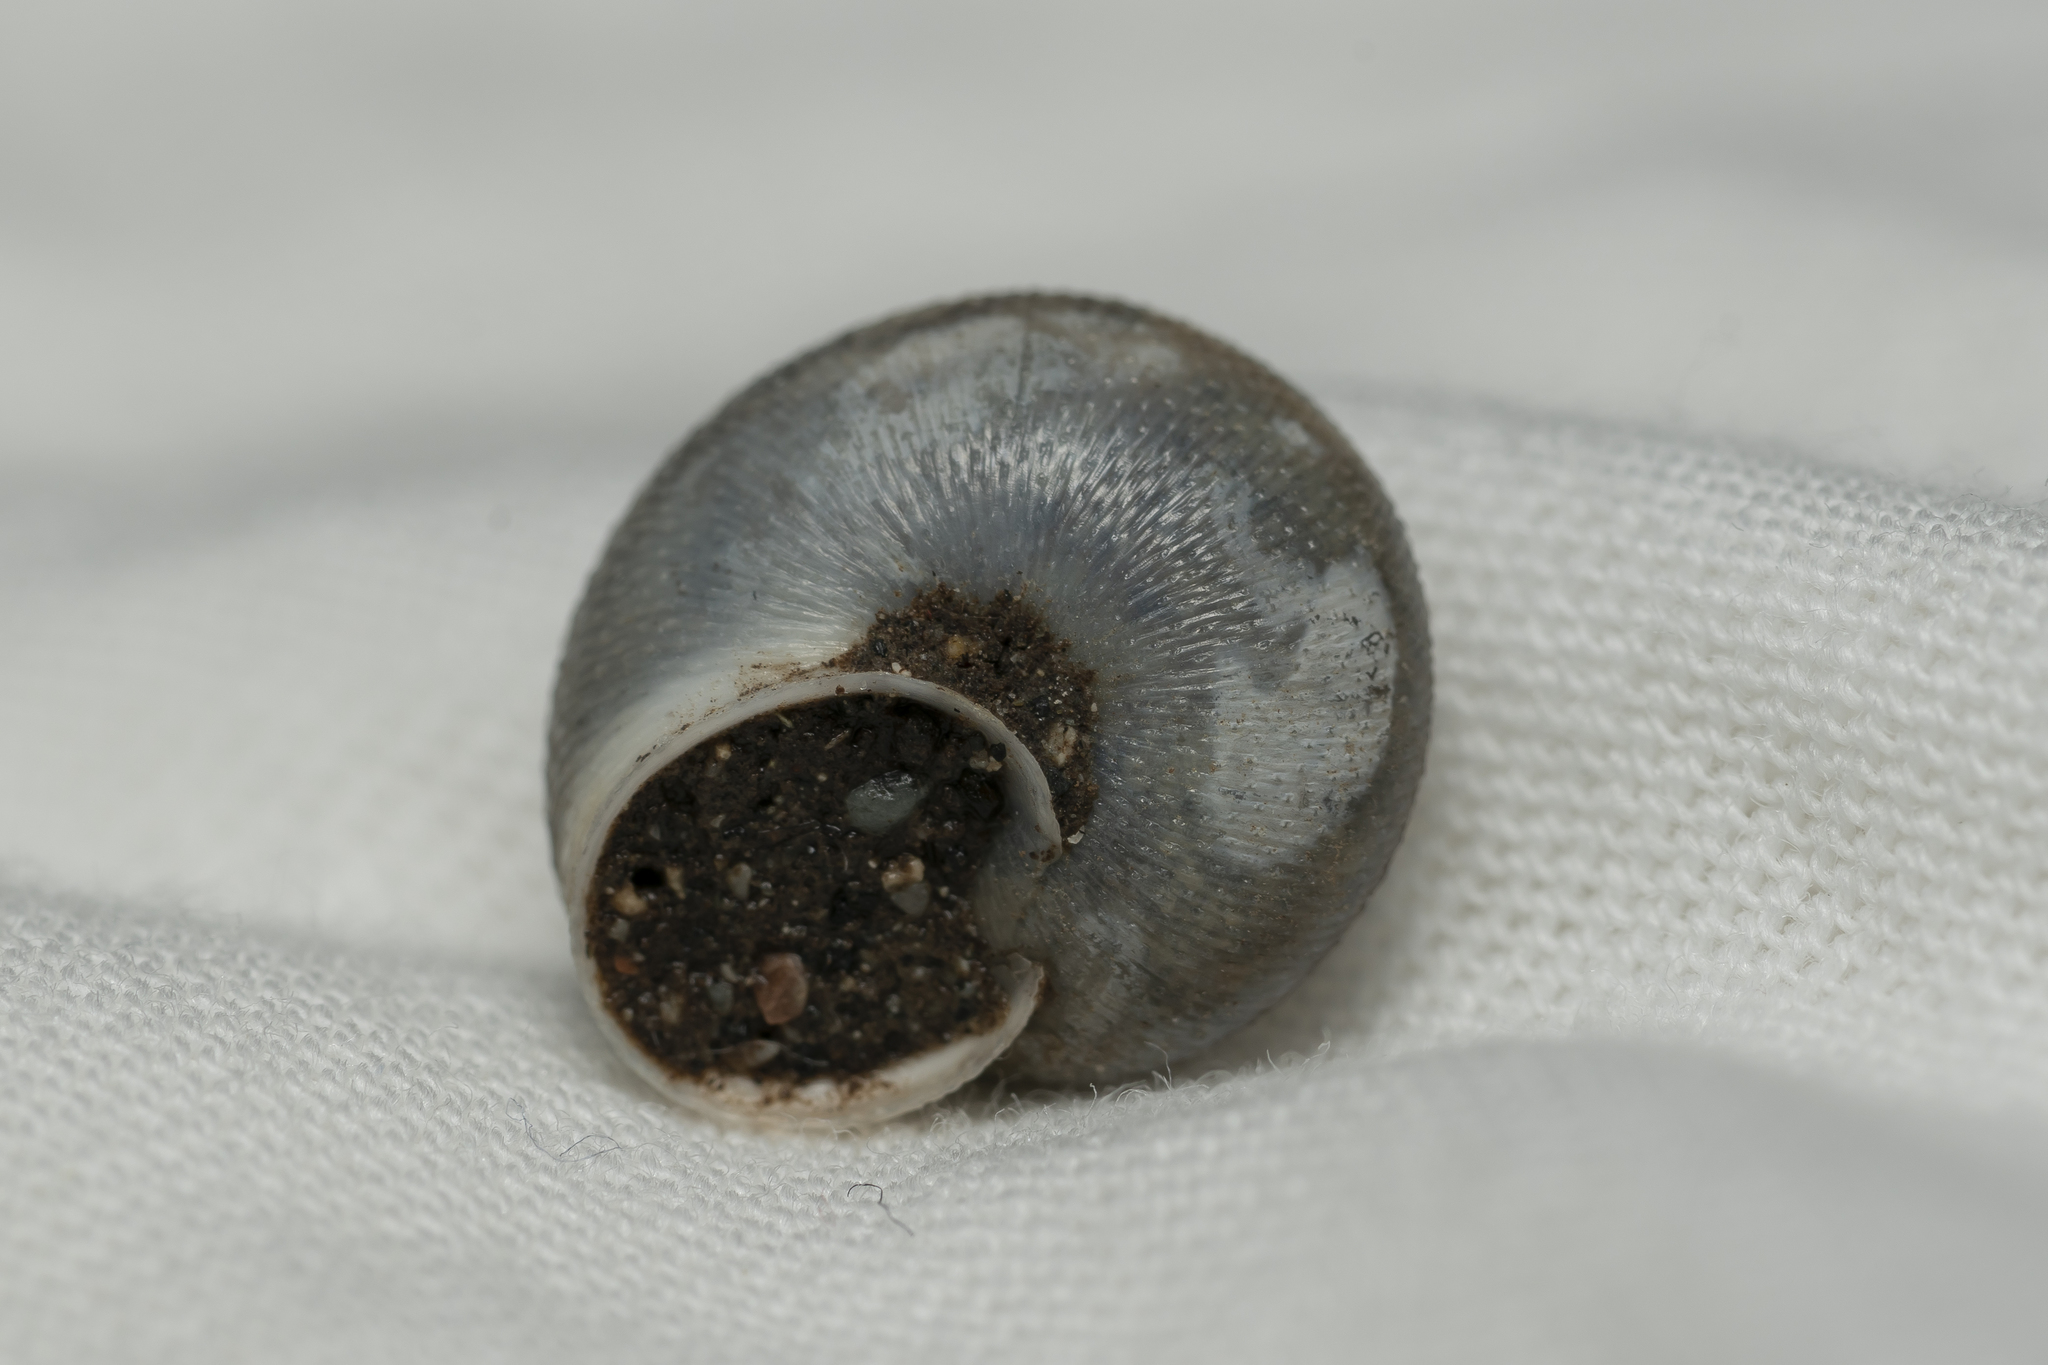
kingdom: Animalia
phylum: Mollusca
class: Gastropoda
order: Stylommatophora
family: Hygromiidae
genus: Metafruticicola
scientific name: Metafruticicola pellita
